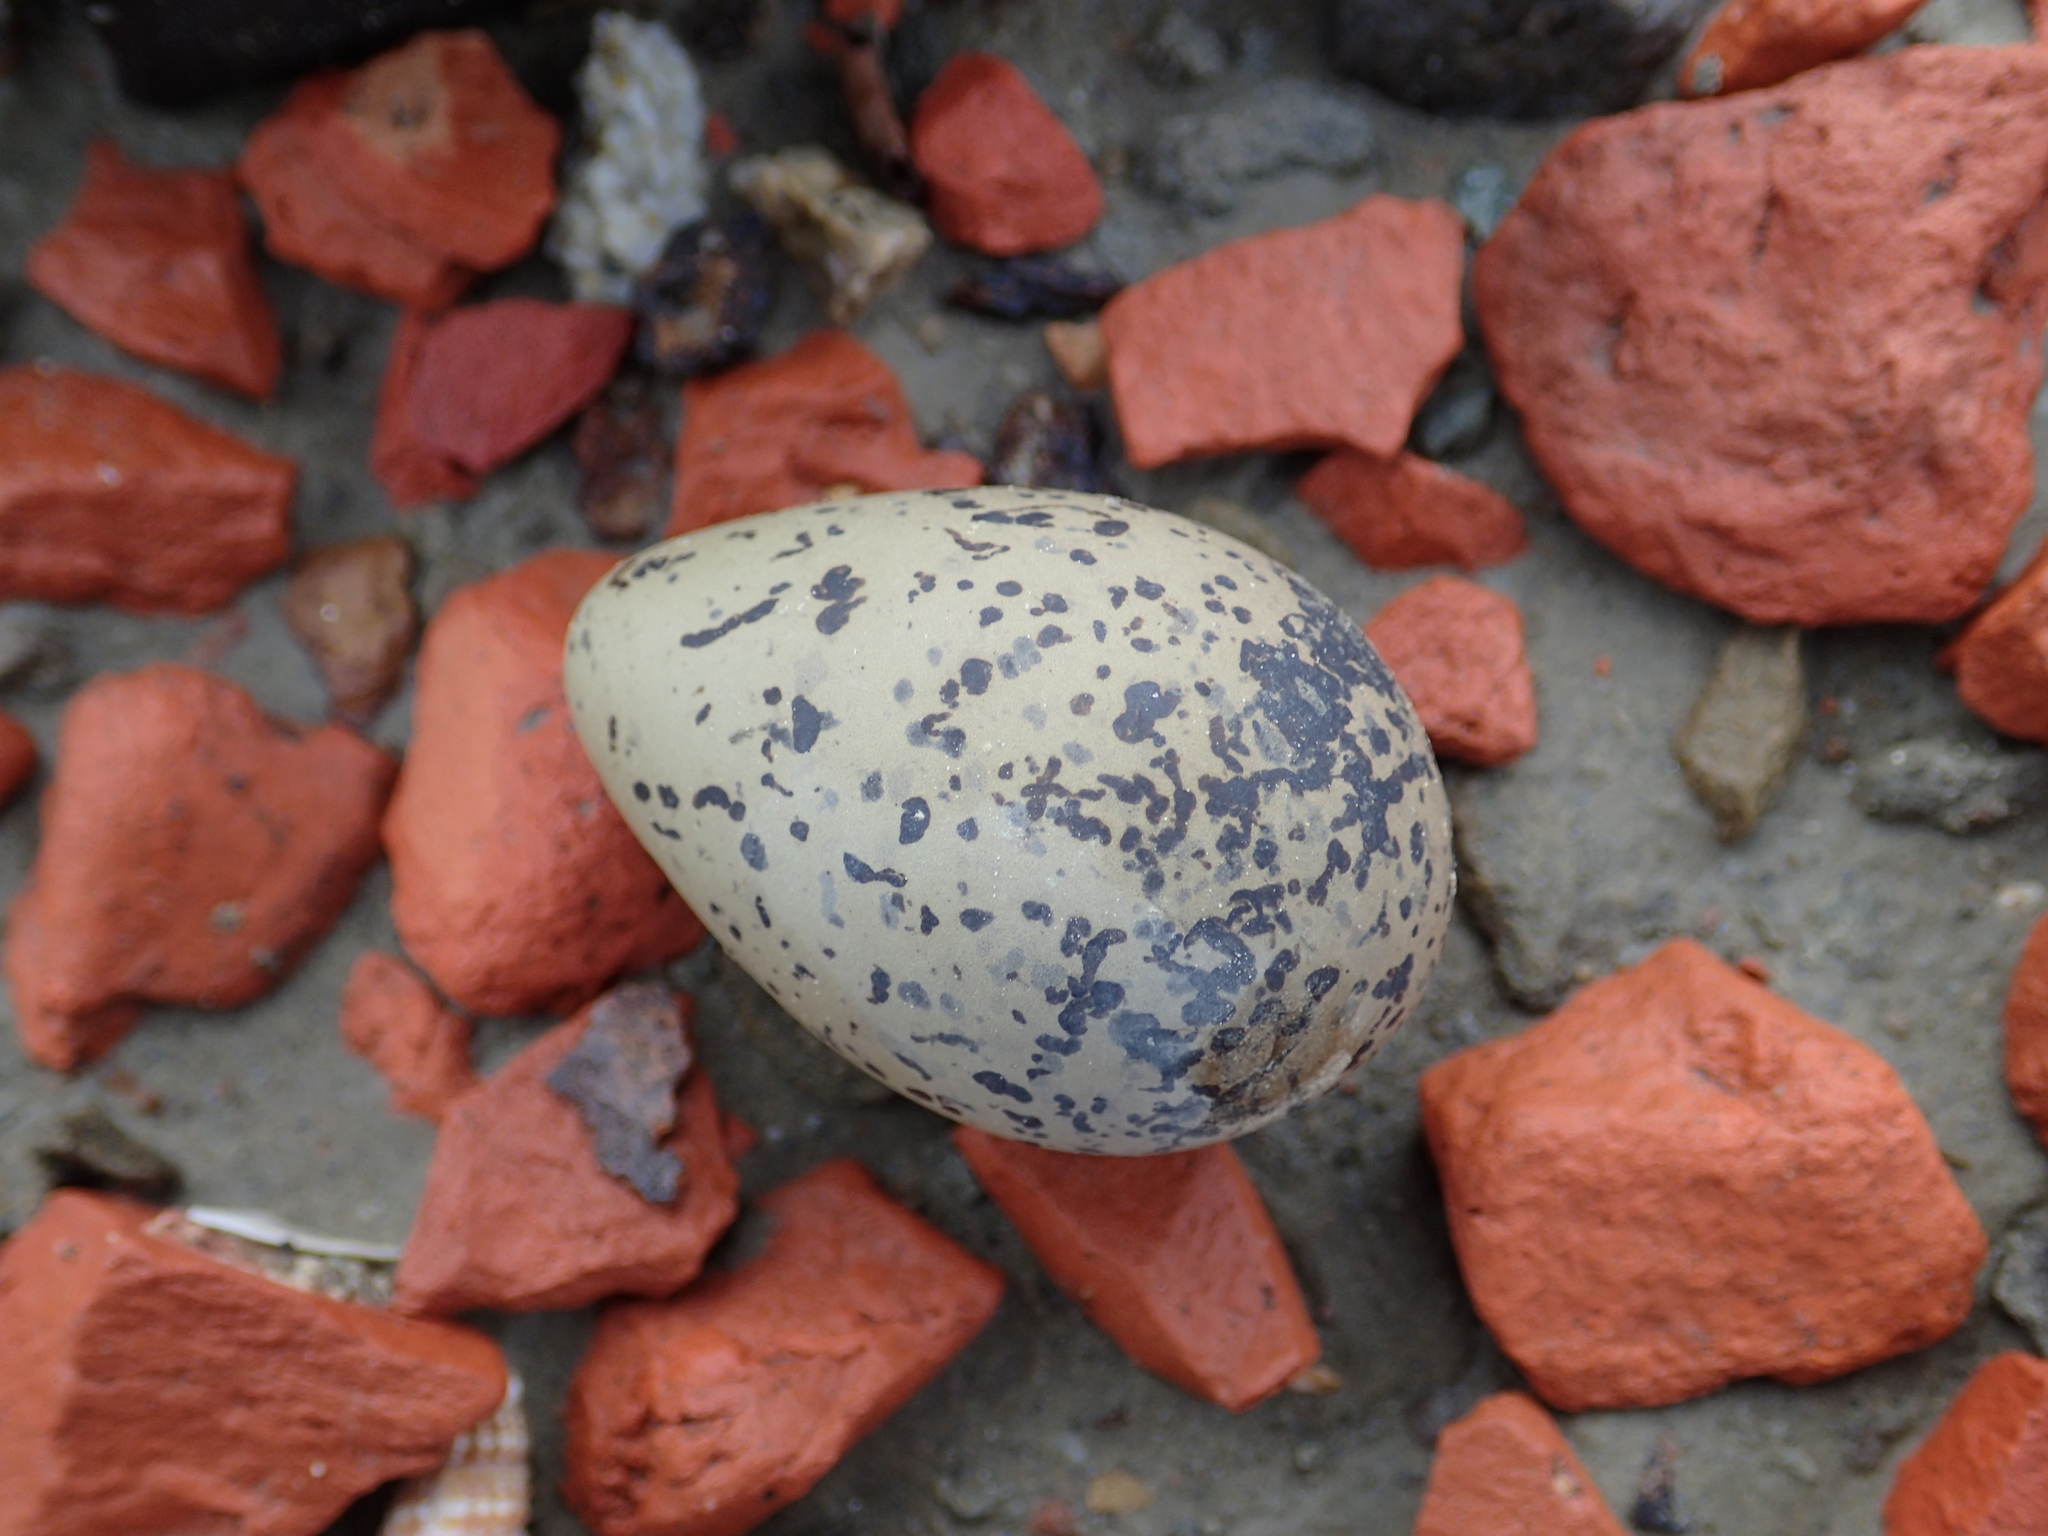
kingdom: Animalia
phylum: Chordata
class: Aves
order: Charadriiformes
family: Charadriidae
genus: Charadrius
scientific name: Charadrius alexandrinus
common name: Kentish plover
